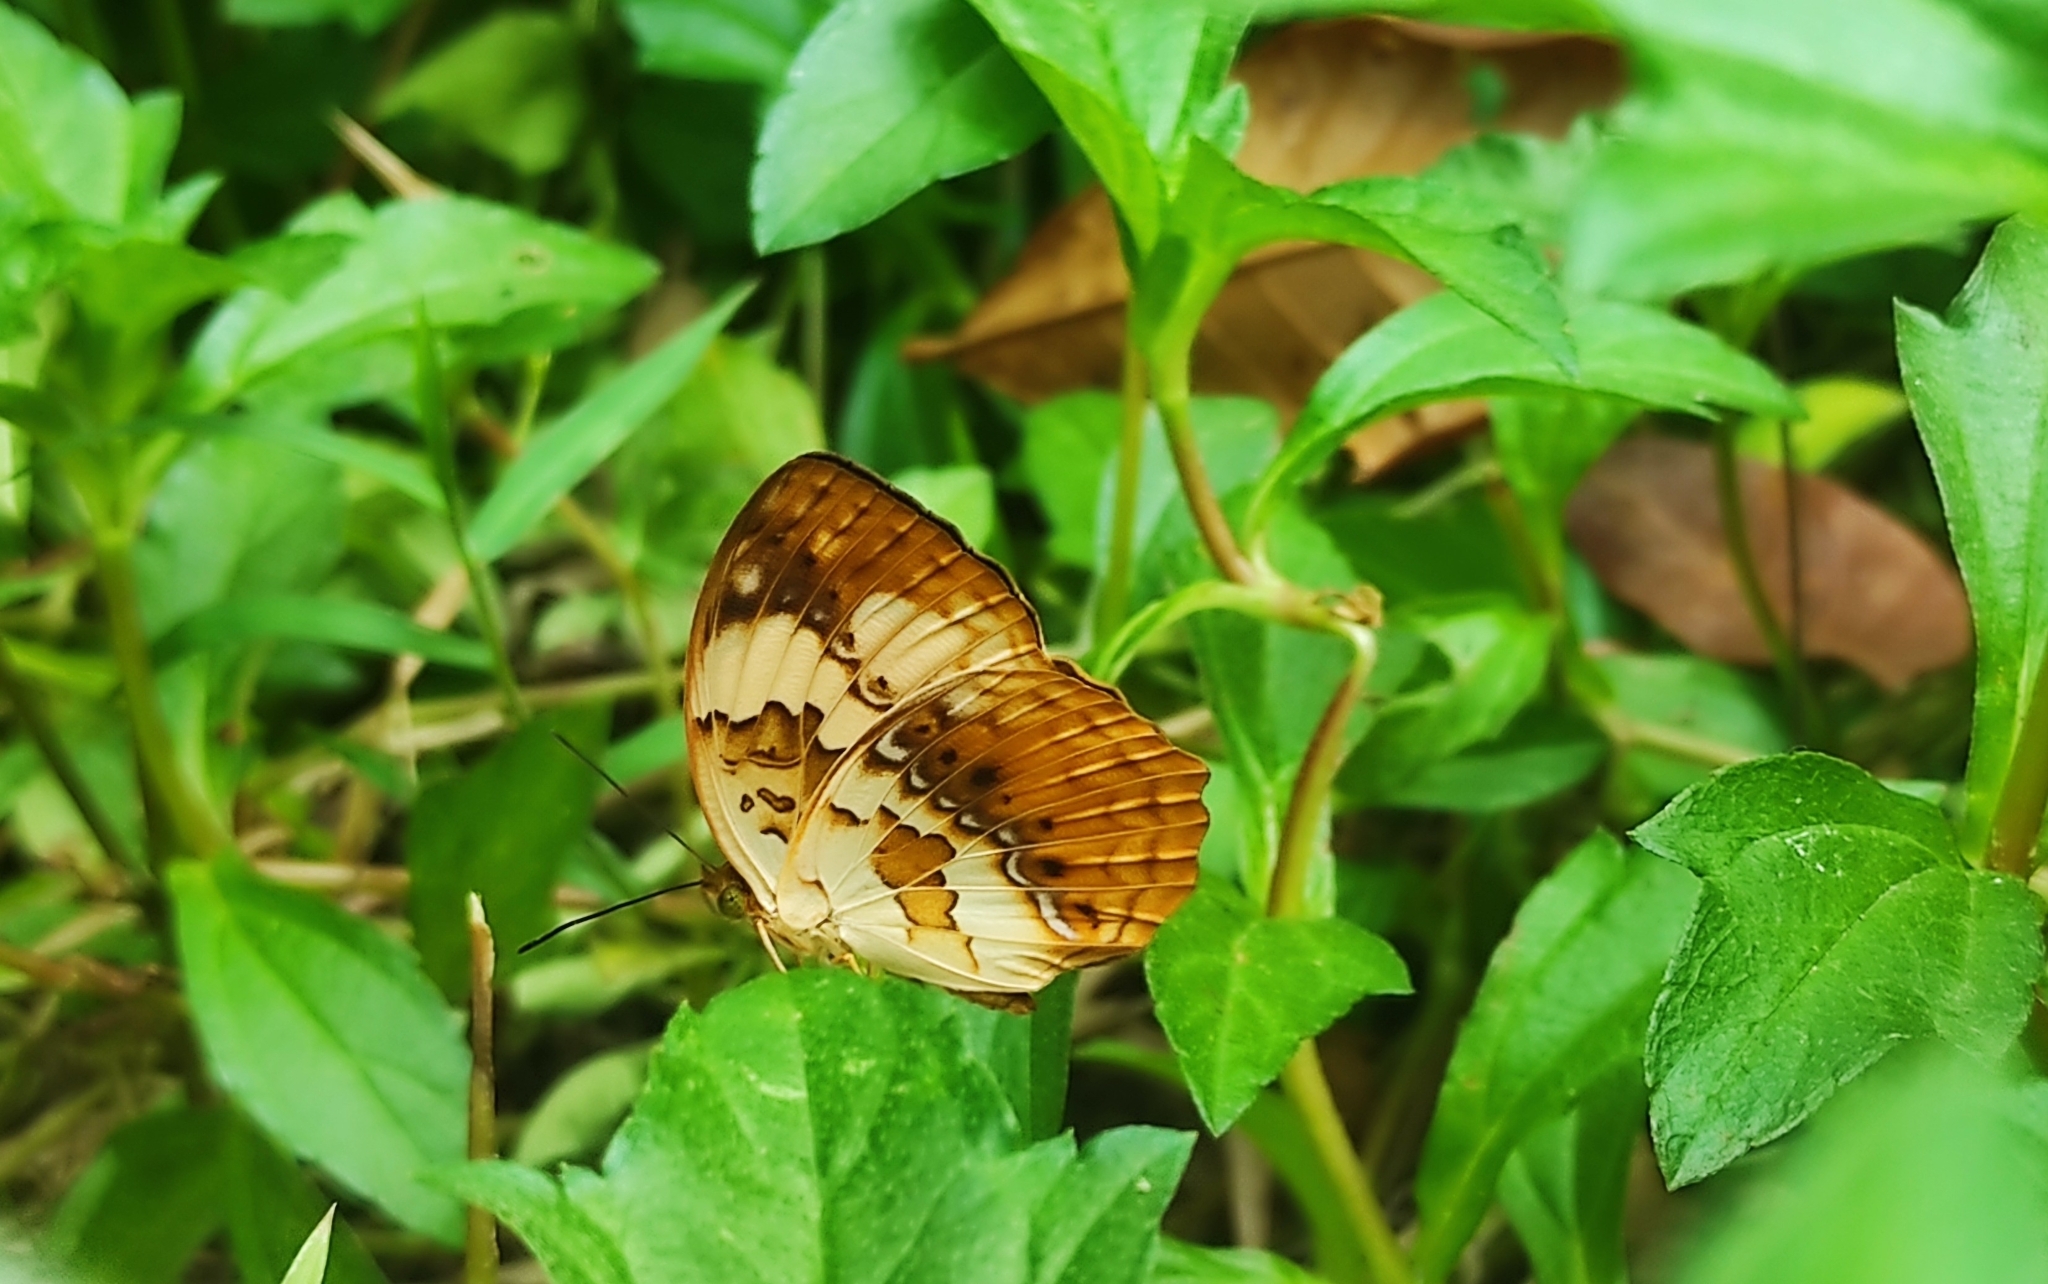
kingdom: Animalia
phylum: Arthropoda
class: Insecta
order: Lepidoptera
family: Nymphalidae
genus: Cupha
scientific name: Cupha erymanthis
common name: Rustic
